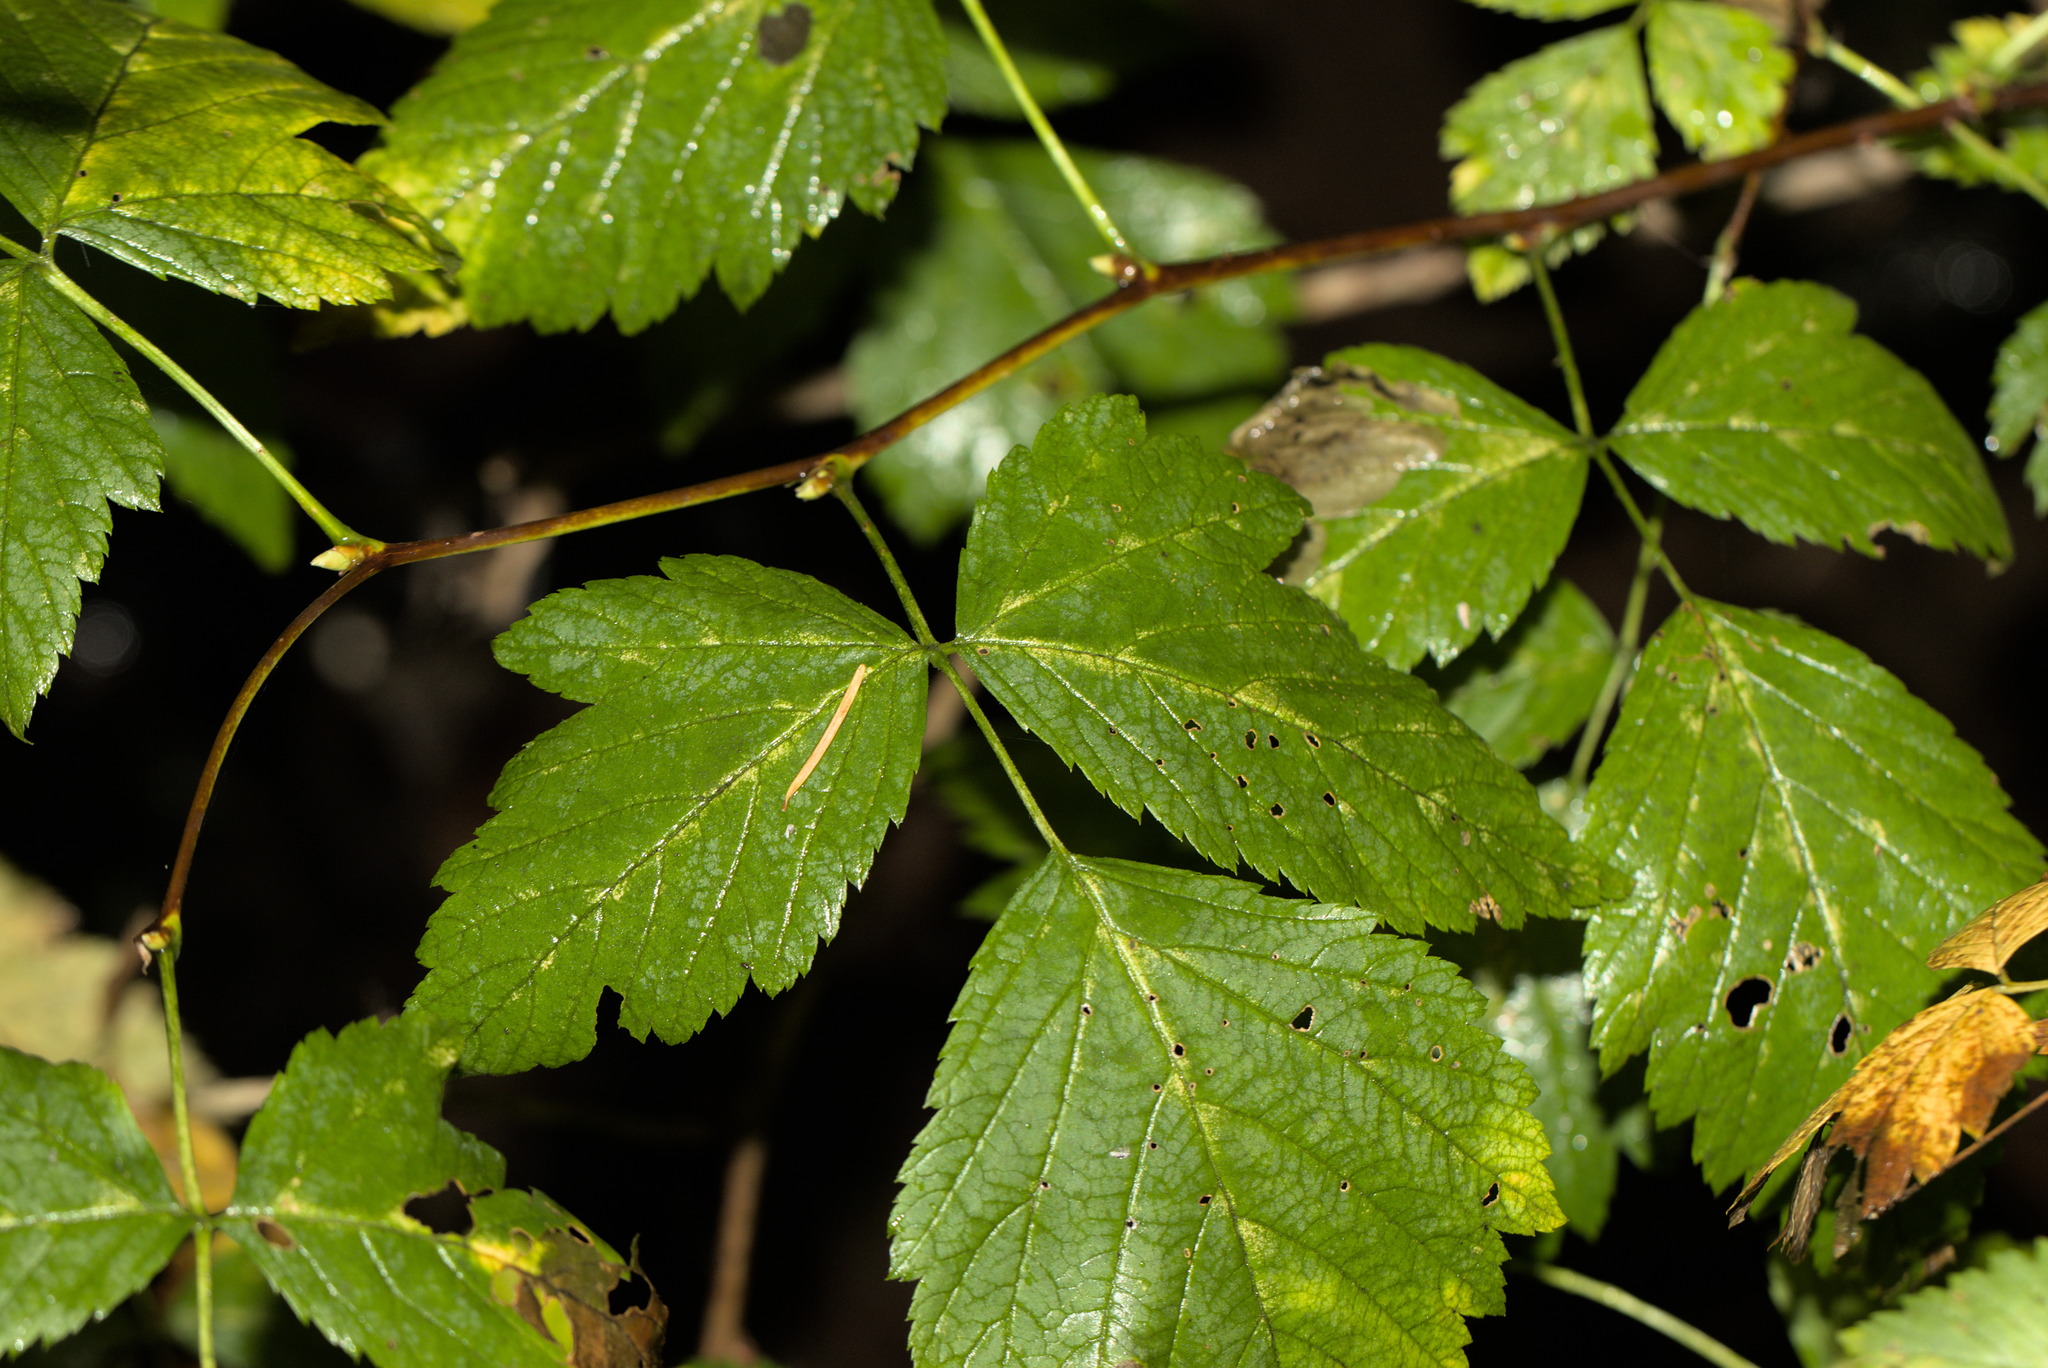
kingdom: Plantae
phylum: Tracheophyta
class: Magnoliopsida
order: Rosales
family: Rosaceae
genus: Rubus
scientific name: Rubus spectabilis
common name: Salmonberry
